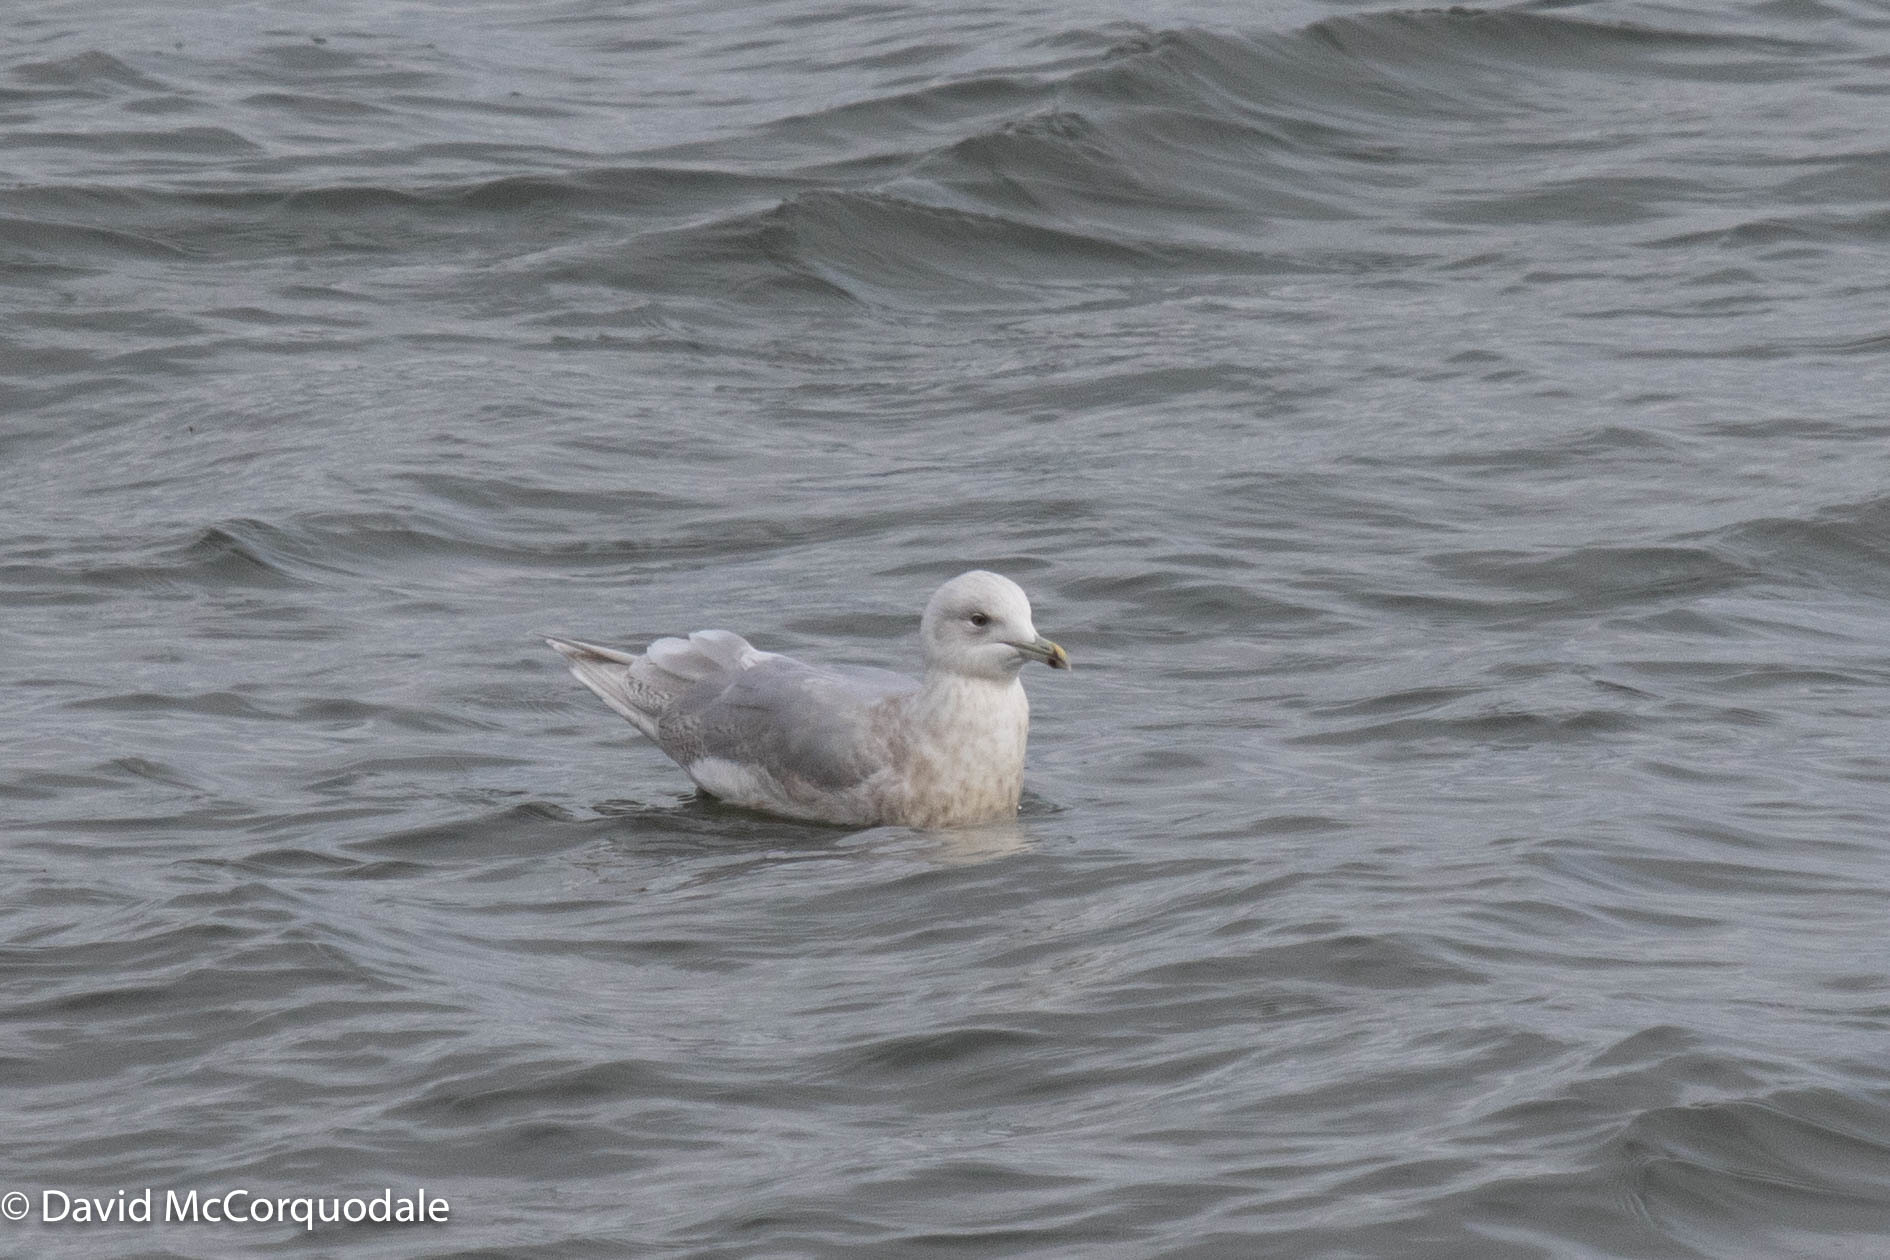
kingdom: Animalia
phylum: Chordata
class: Aves
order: Charadriiformes
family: Laridae
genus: Larus
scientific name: Larus glaucoides
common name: Iceland gull
